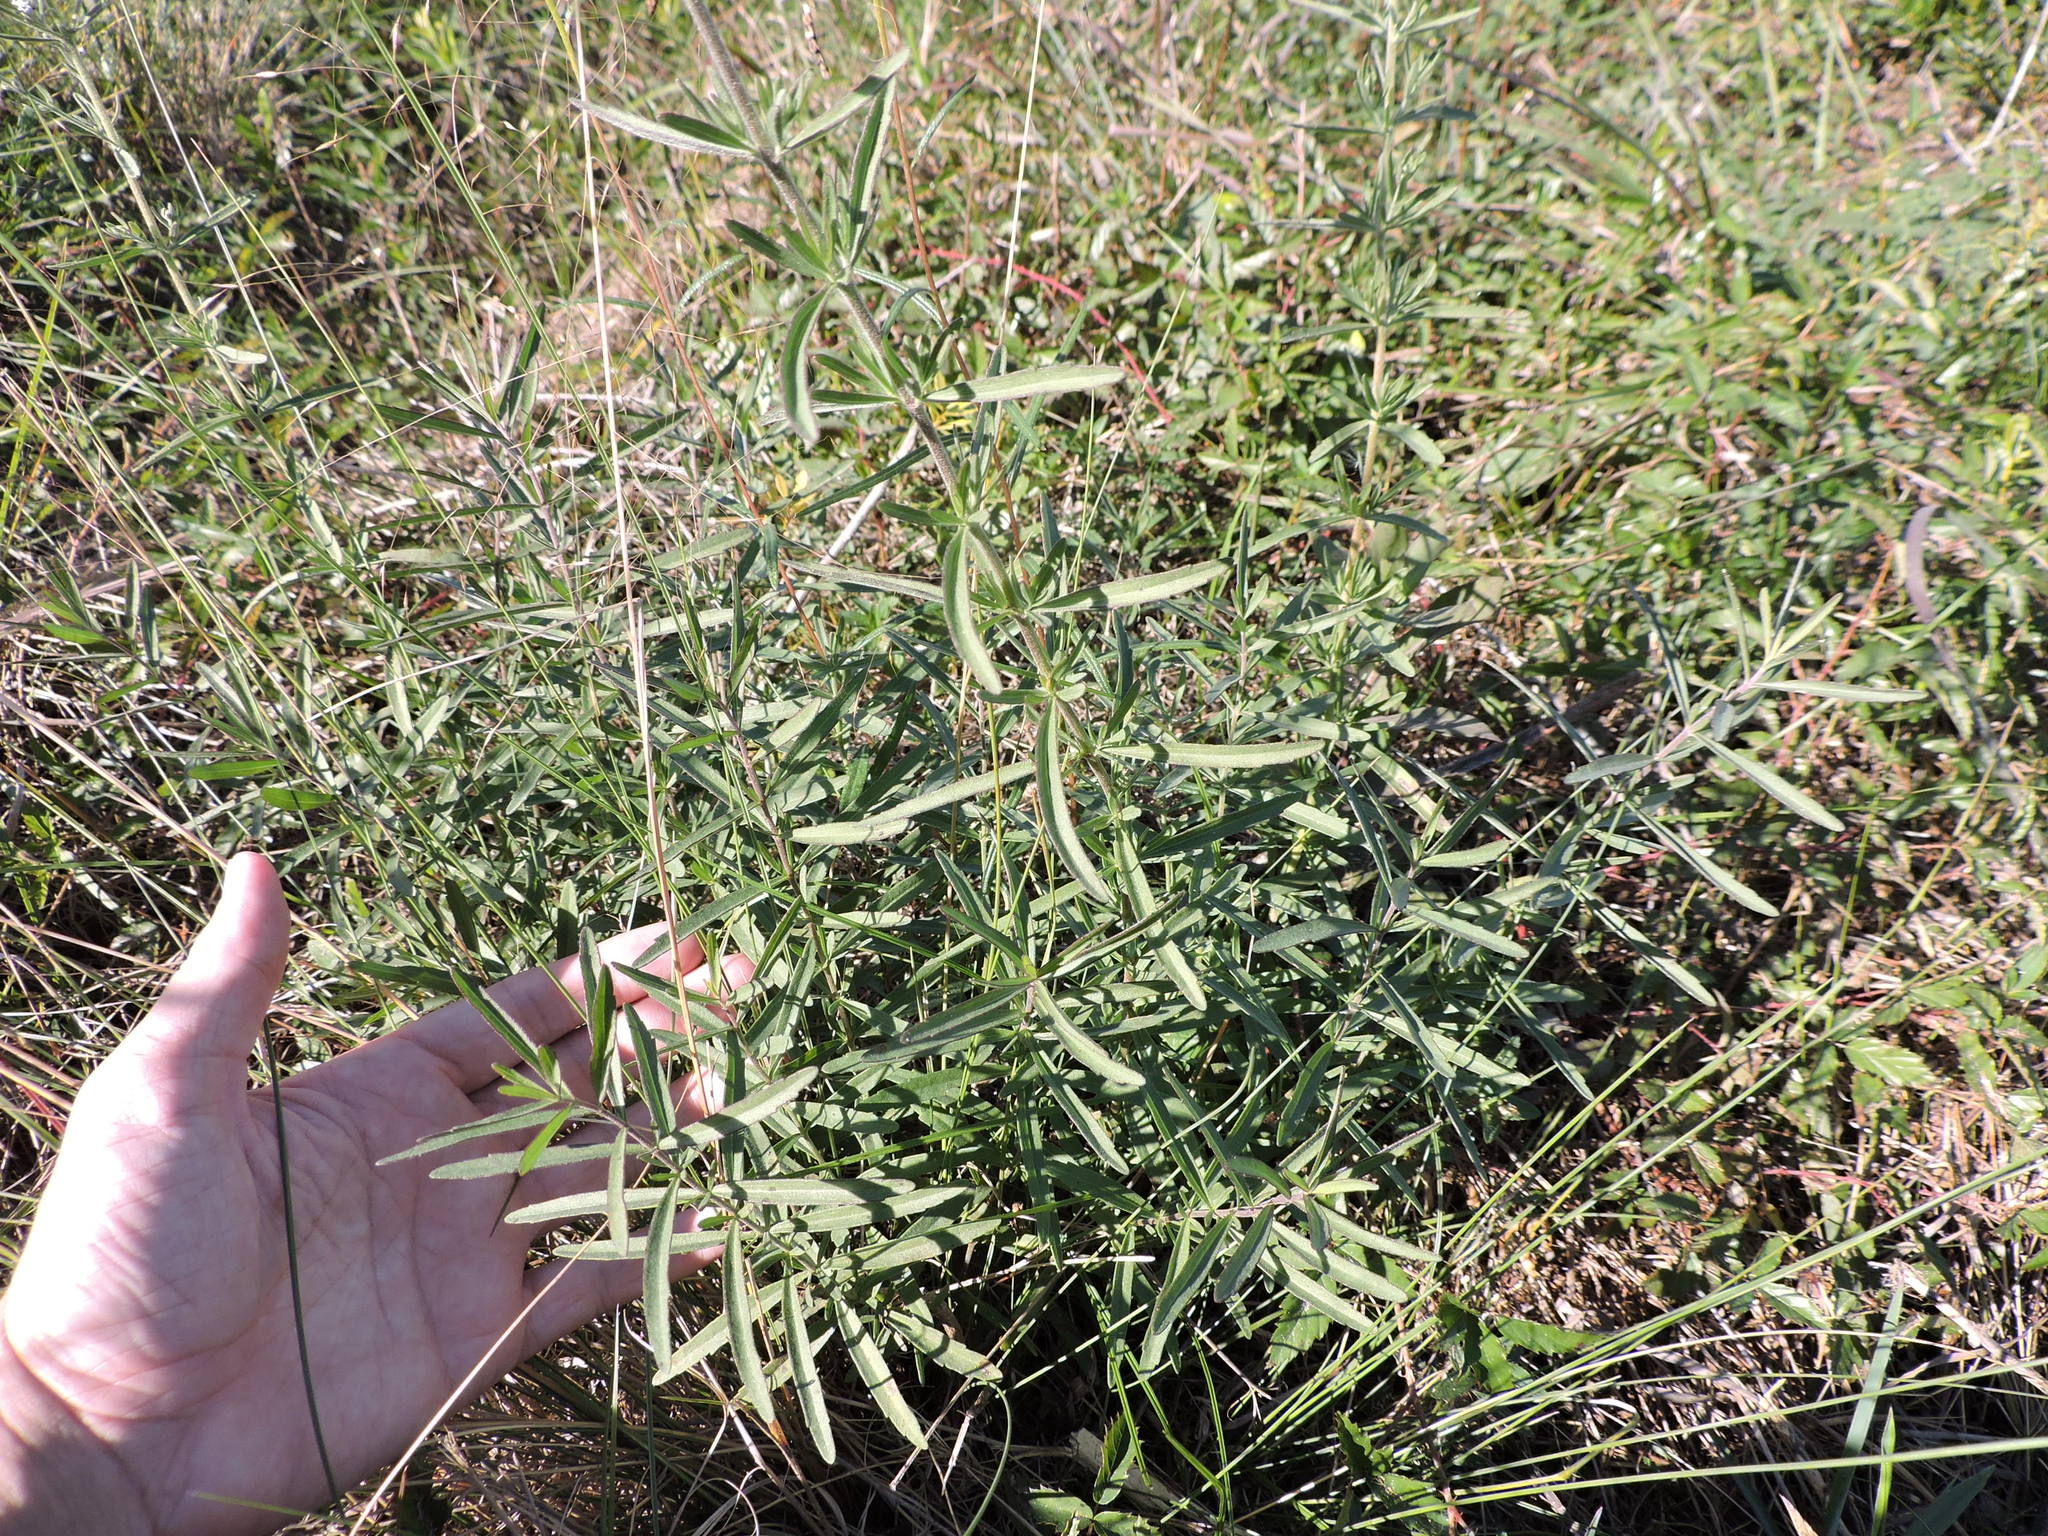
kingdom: Plantae
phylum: Tracheophyta
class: Magnoliopsida
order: Asterales
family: Asteraceae
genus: Eupatorium
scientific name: Eupatorium hyssopifolium
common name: Hyssop-leaf thoroughwort
